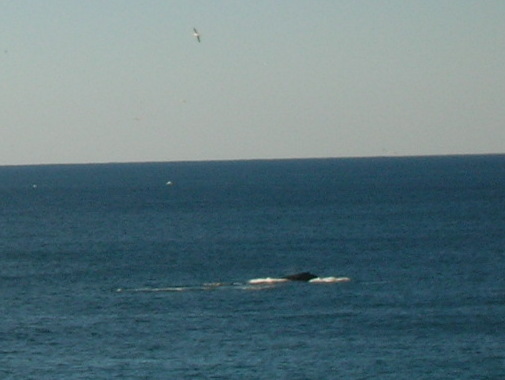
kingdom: Animalia
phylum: Chordata
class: Mammalia
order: Cetacea
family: Balaenopteridae
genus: Megaptera
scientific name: Megaptera novaeangliae
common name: Humpback whale
